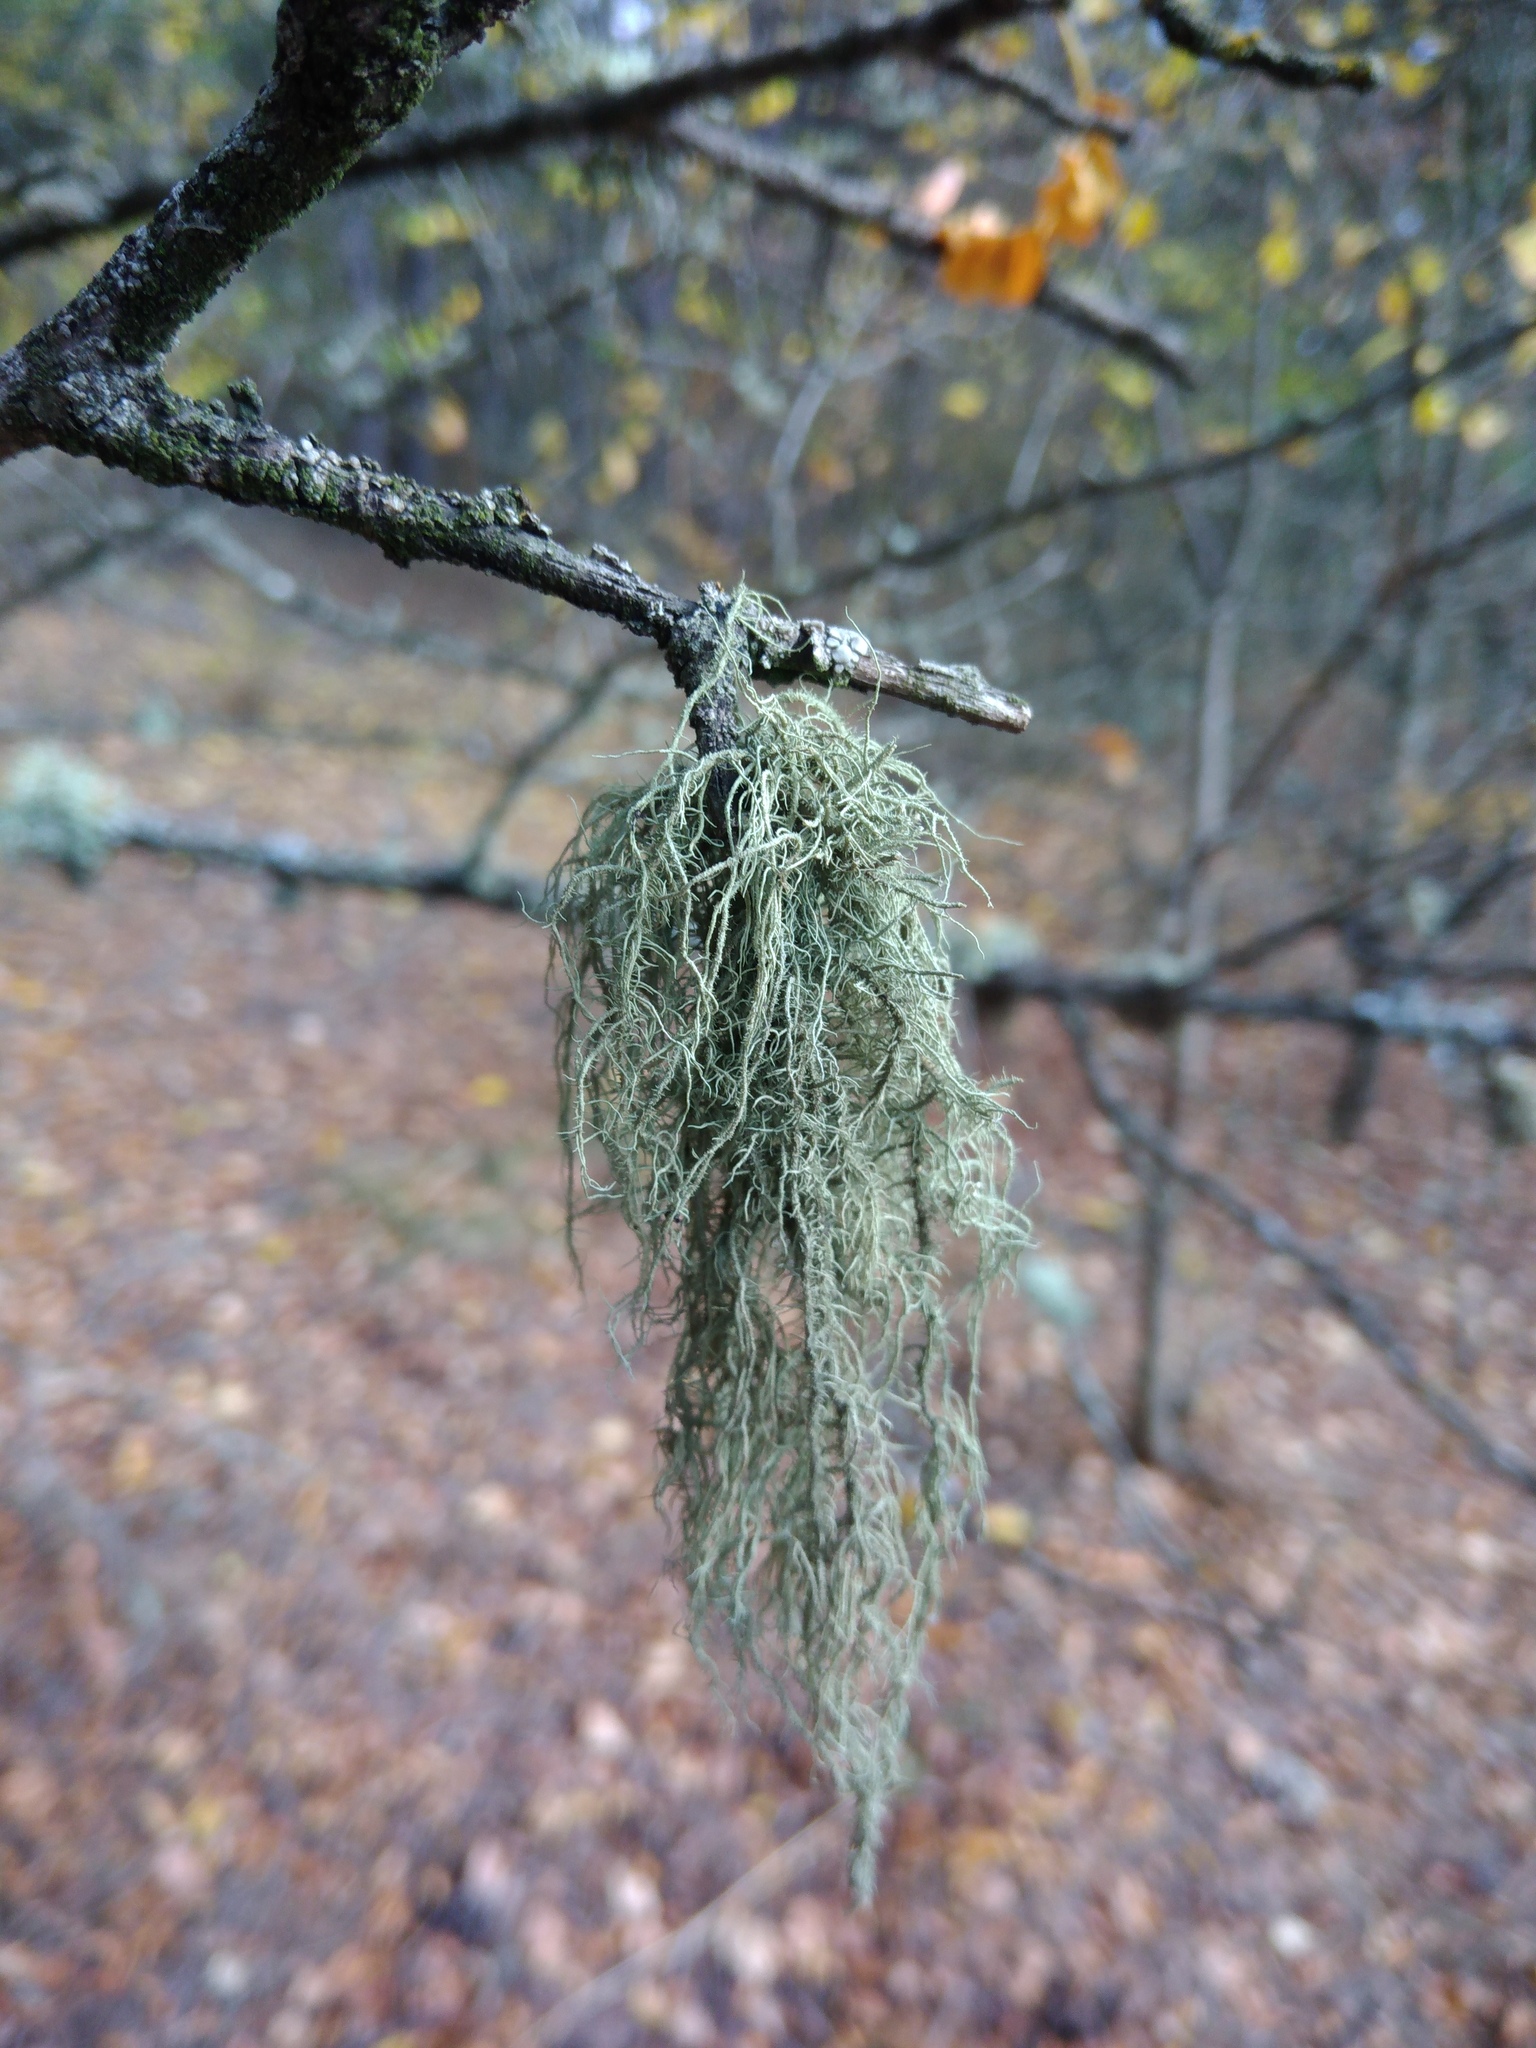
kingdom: Fungi
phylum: Ascomycota
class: Lecanoromycetes
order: Lecanorales
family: Parmeliaceae
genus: Usnea
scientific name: Usnea hirta
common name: Bristly beard lichen
